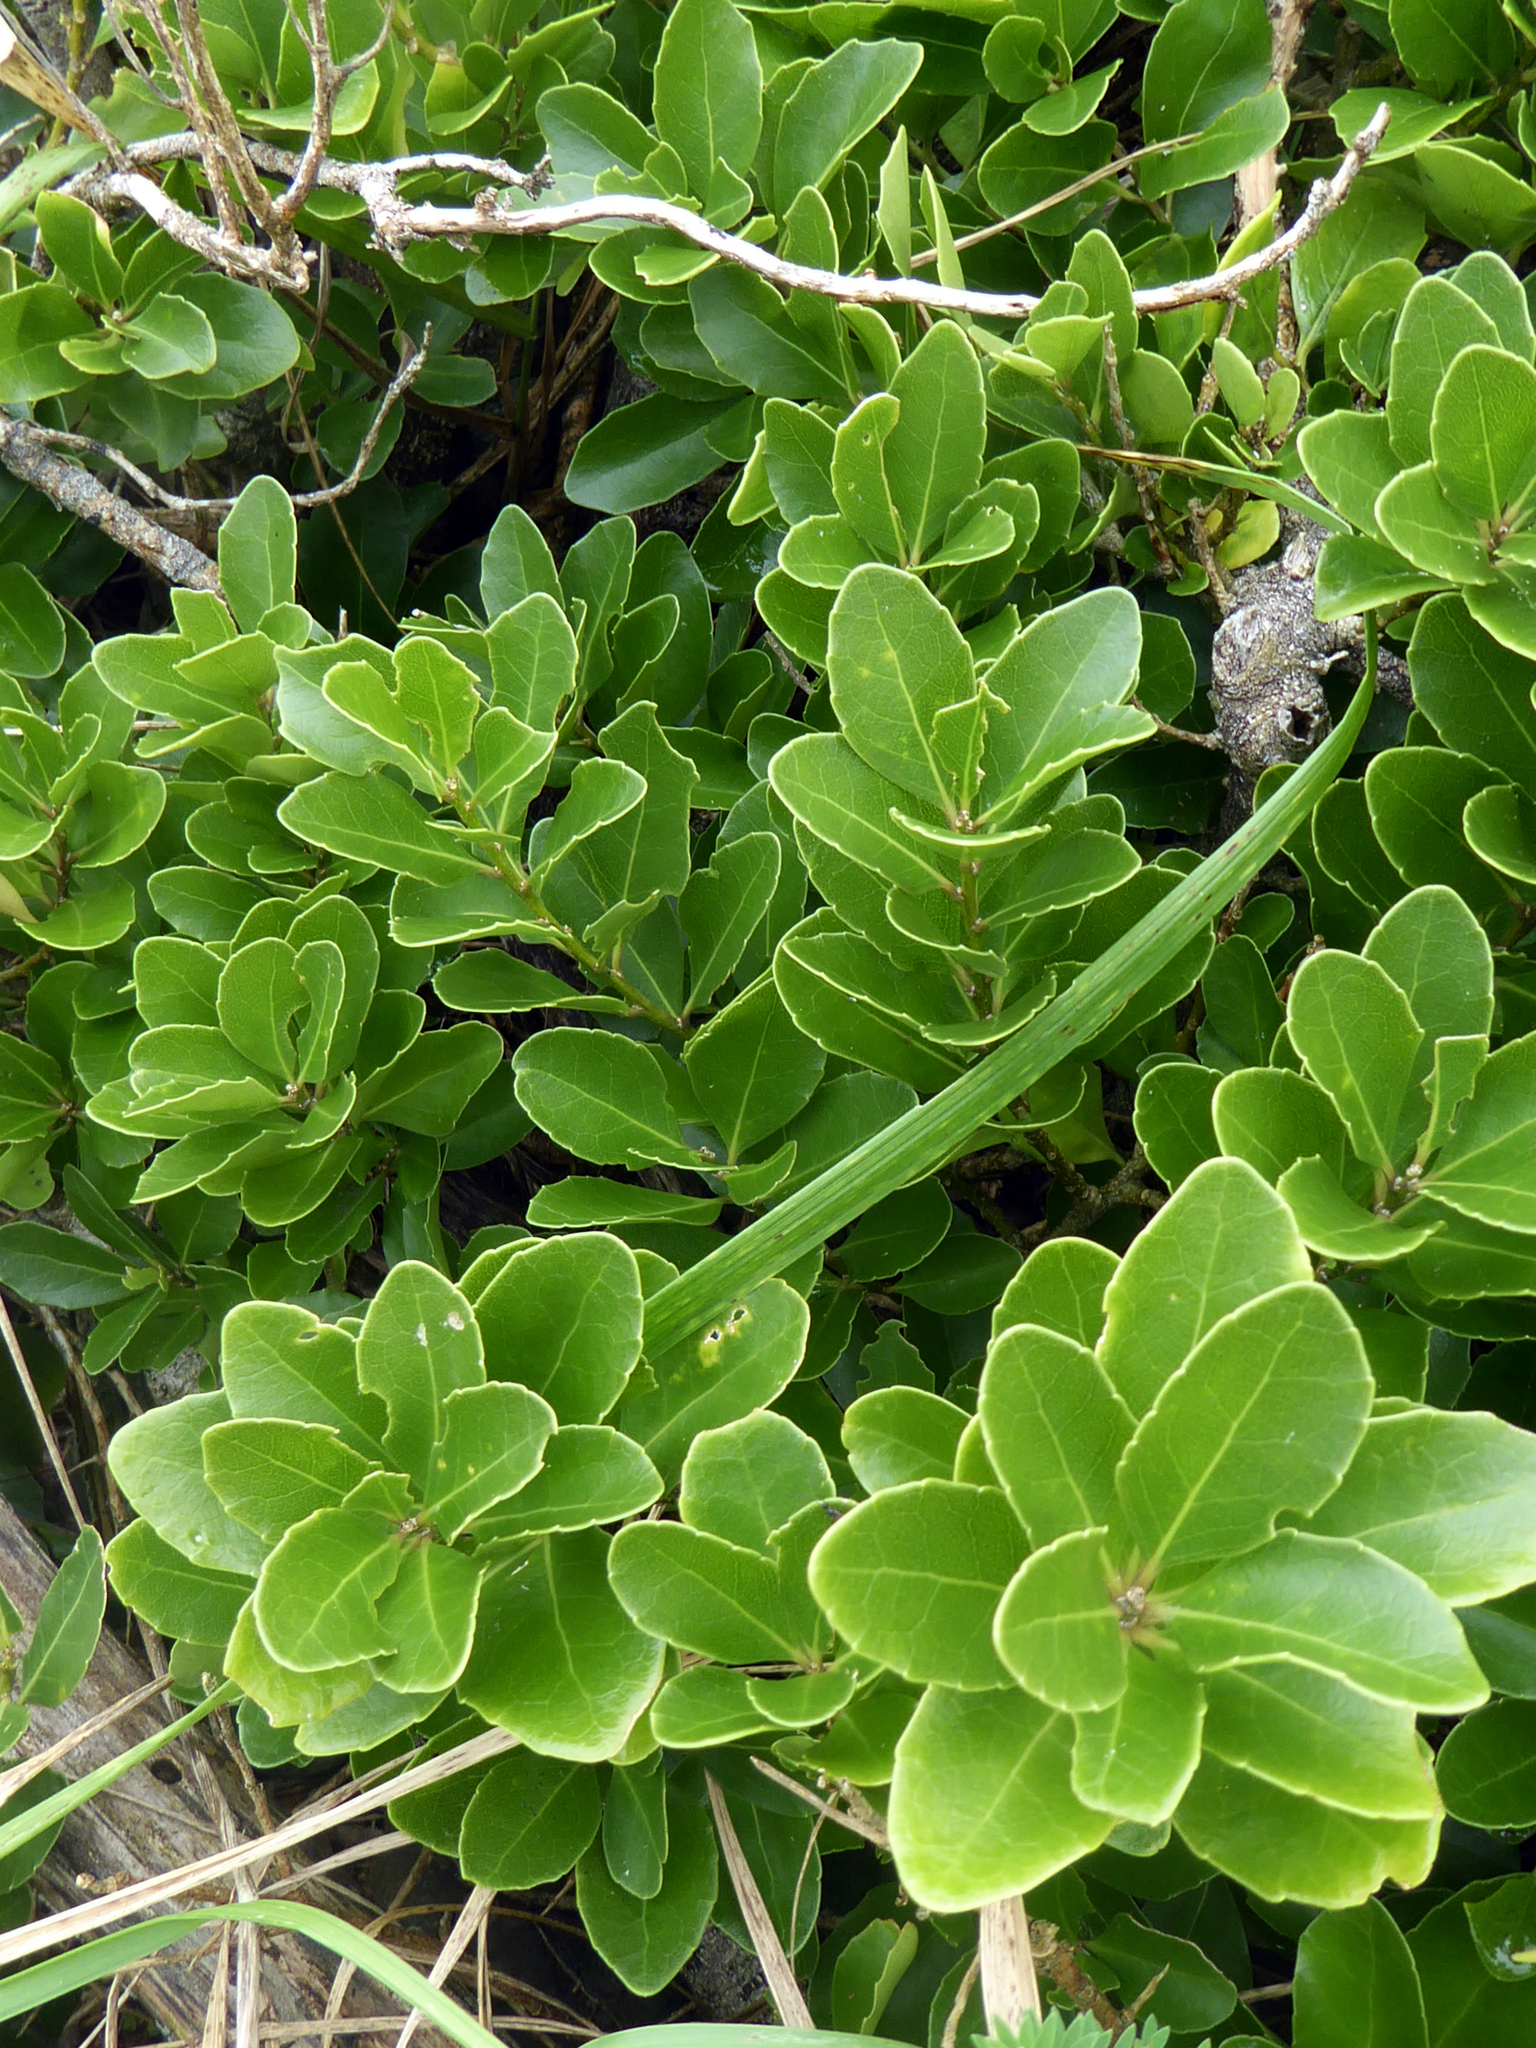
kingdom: Plantae
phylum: Tracheophyta
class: Magnoliopsida
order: Malpighiales
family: Violaceae
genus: Melicytus
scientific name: Melicytus novae-zelandiae
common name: Coastal mahoe
